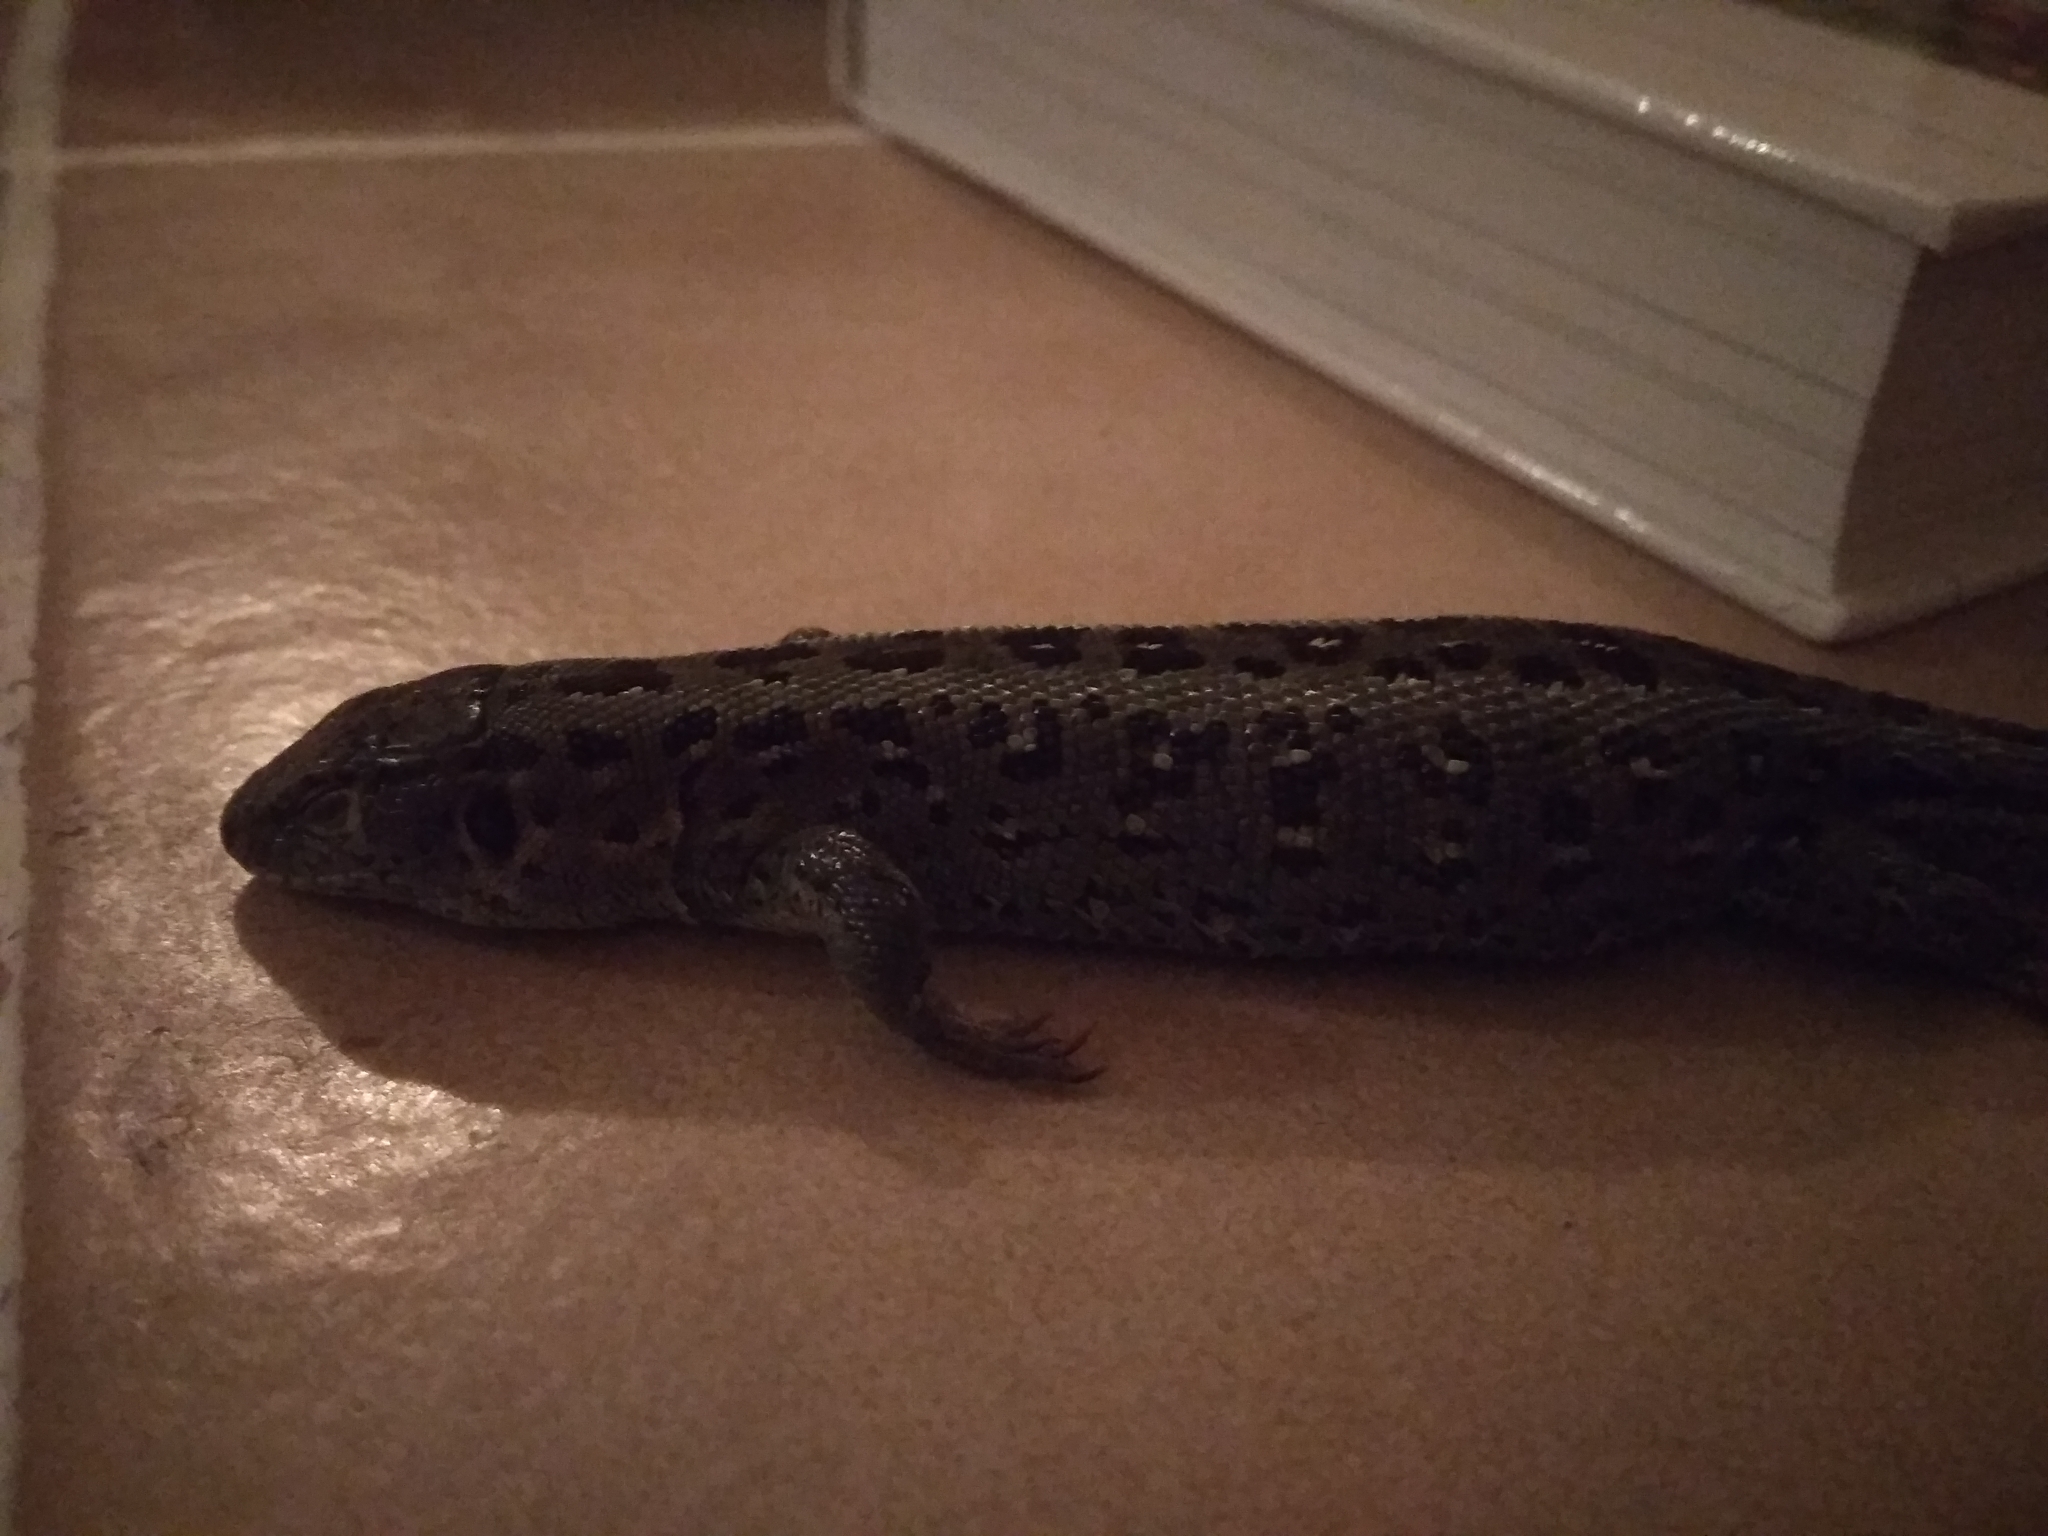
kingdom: Animalia
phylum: Chordata
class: Squamata
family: Lacertidae
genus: Lacerta
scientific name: Lacerta agilis
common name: Sand lizard
